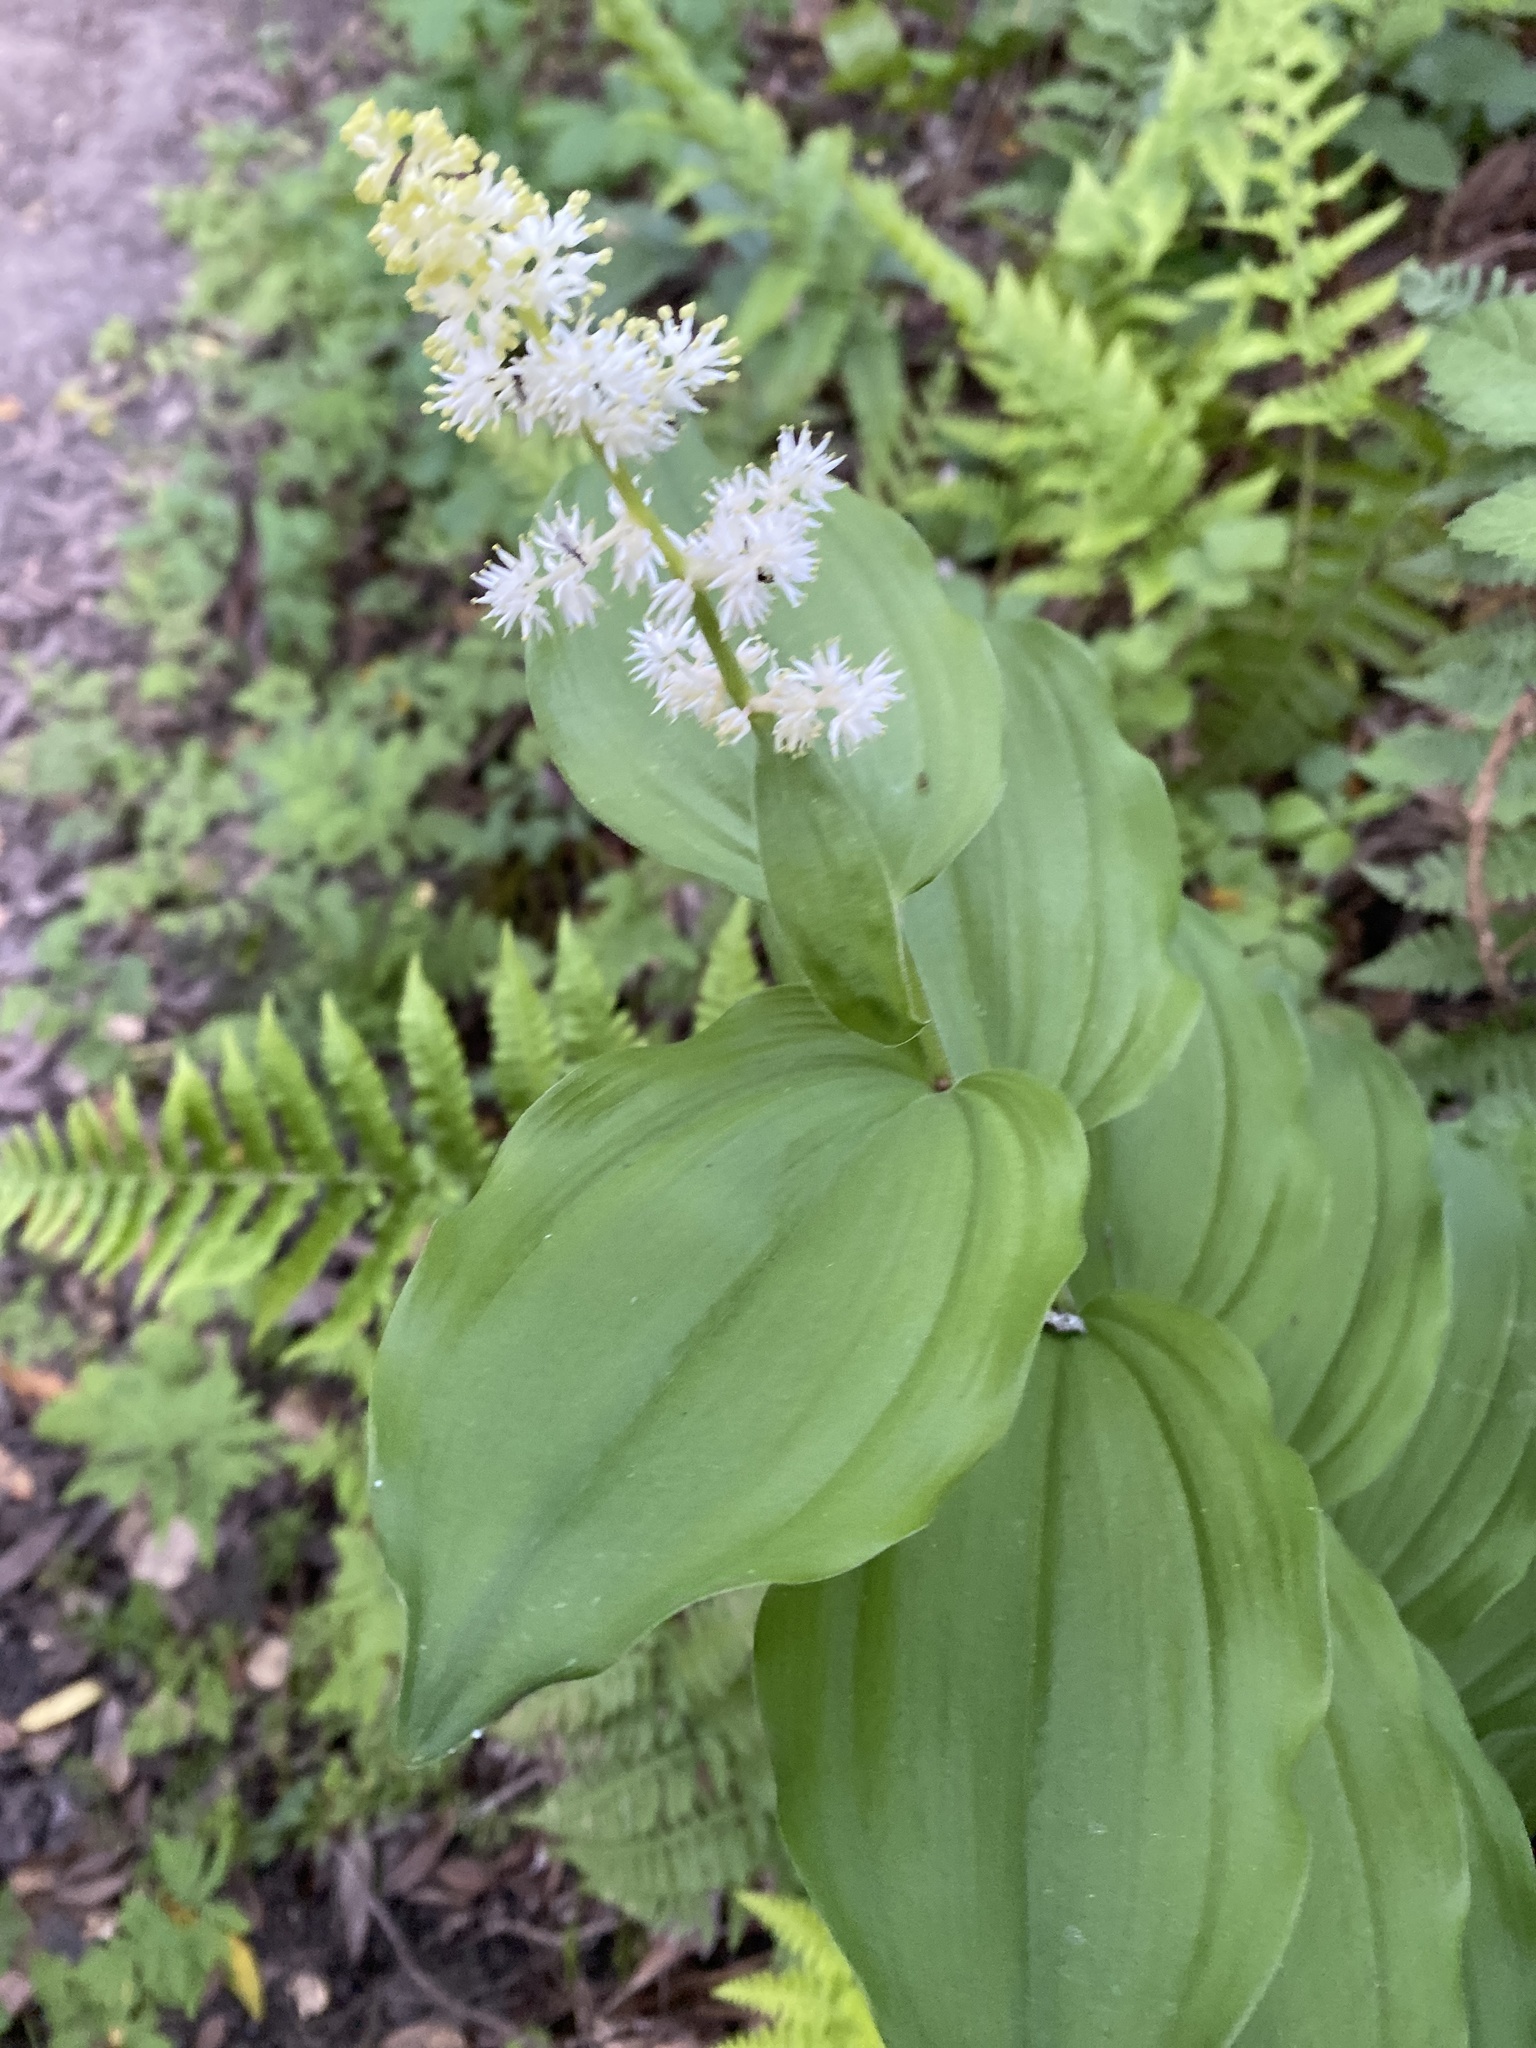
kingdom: Plantae
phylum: Tracheophyta
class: Liliopsida
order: Asparagales
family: Asparagaceae
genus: Maianthemum
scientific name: Maianthemum racemosum
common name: False spikenard
